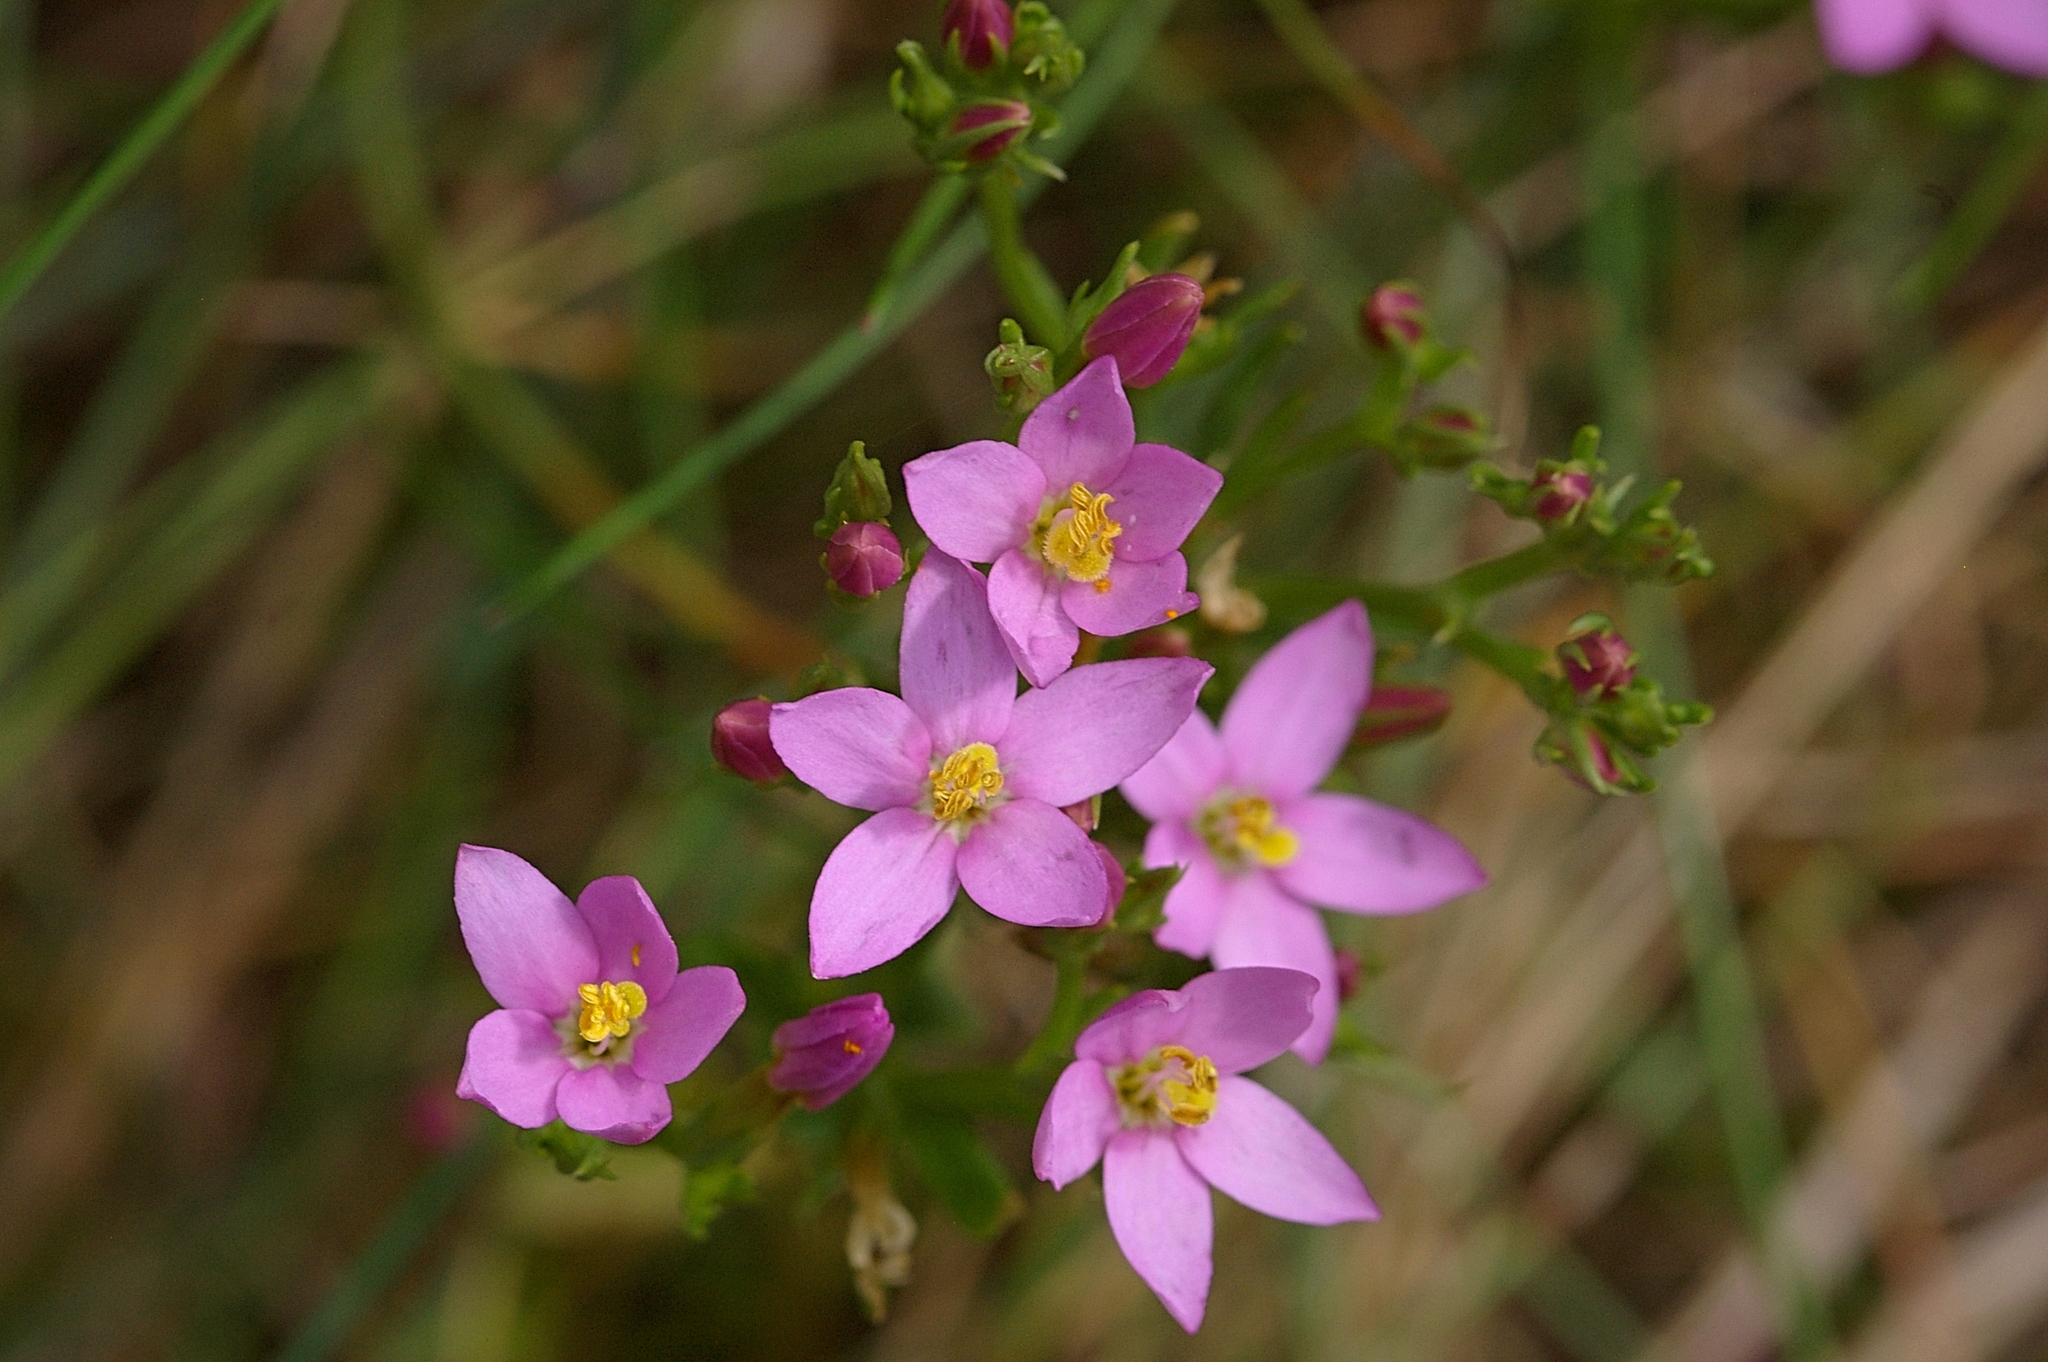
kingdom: Plantae
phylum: Tracheophyta
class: Magnoliopsida
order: Gentianales
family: Gentianaceae
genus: Centaurium
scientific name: Centaurium erythraea
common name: Common centaury
